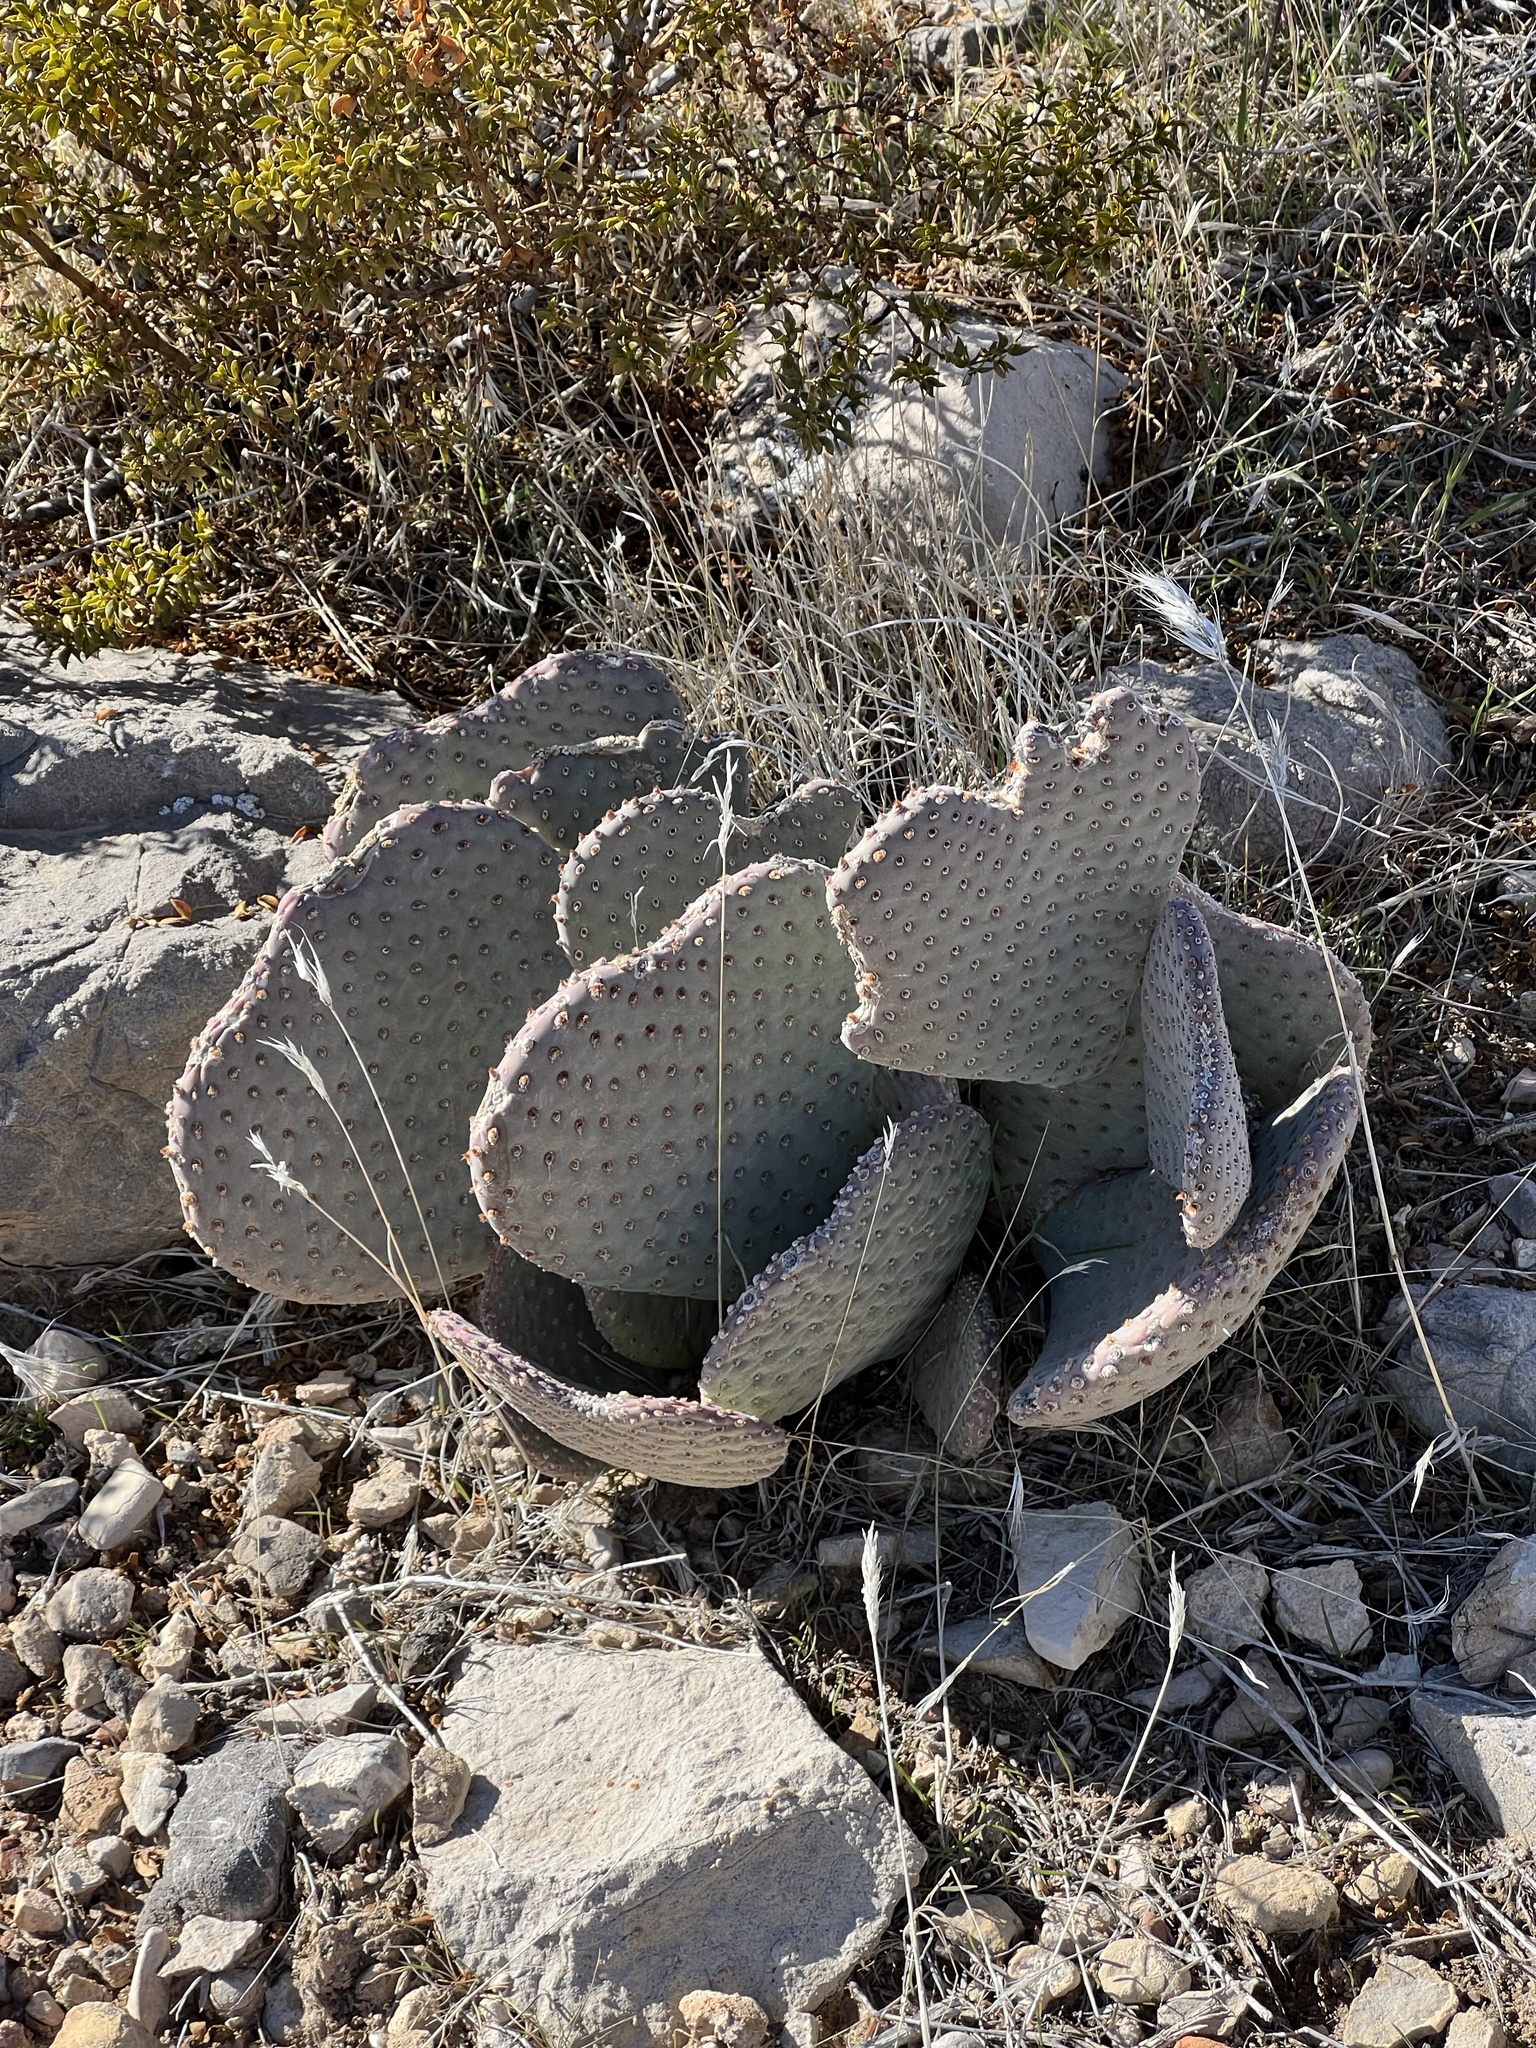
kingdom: Plantae
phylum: Tracheophyta
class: Magnoliopsida
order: Caryophyllales
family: Cactaceae
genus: Opuntia
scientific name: Opuntia basilaris
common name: Beavertail prickly-pear
